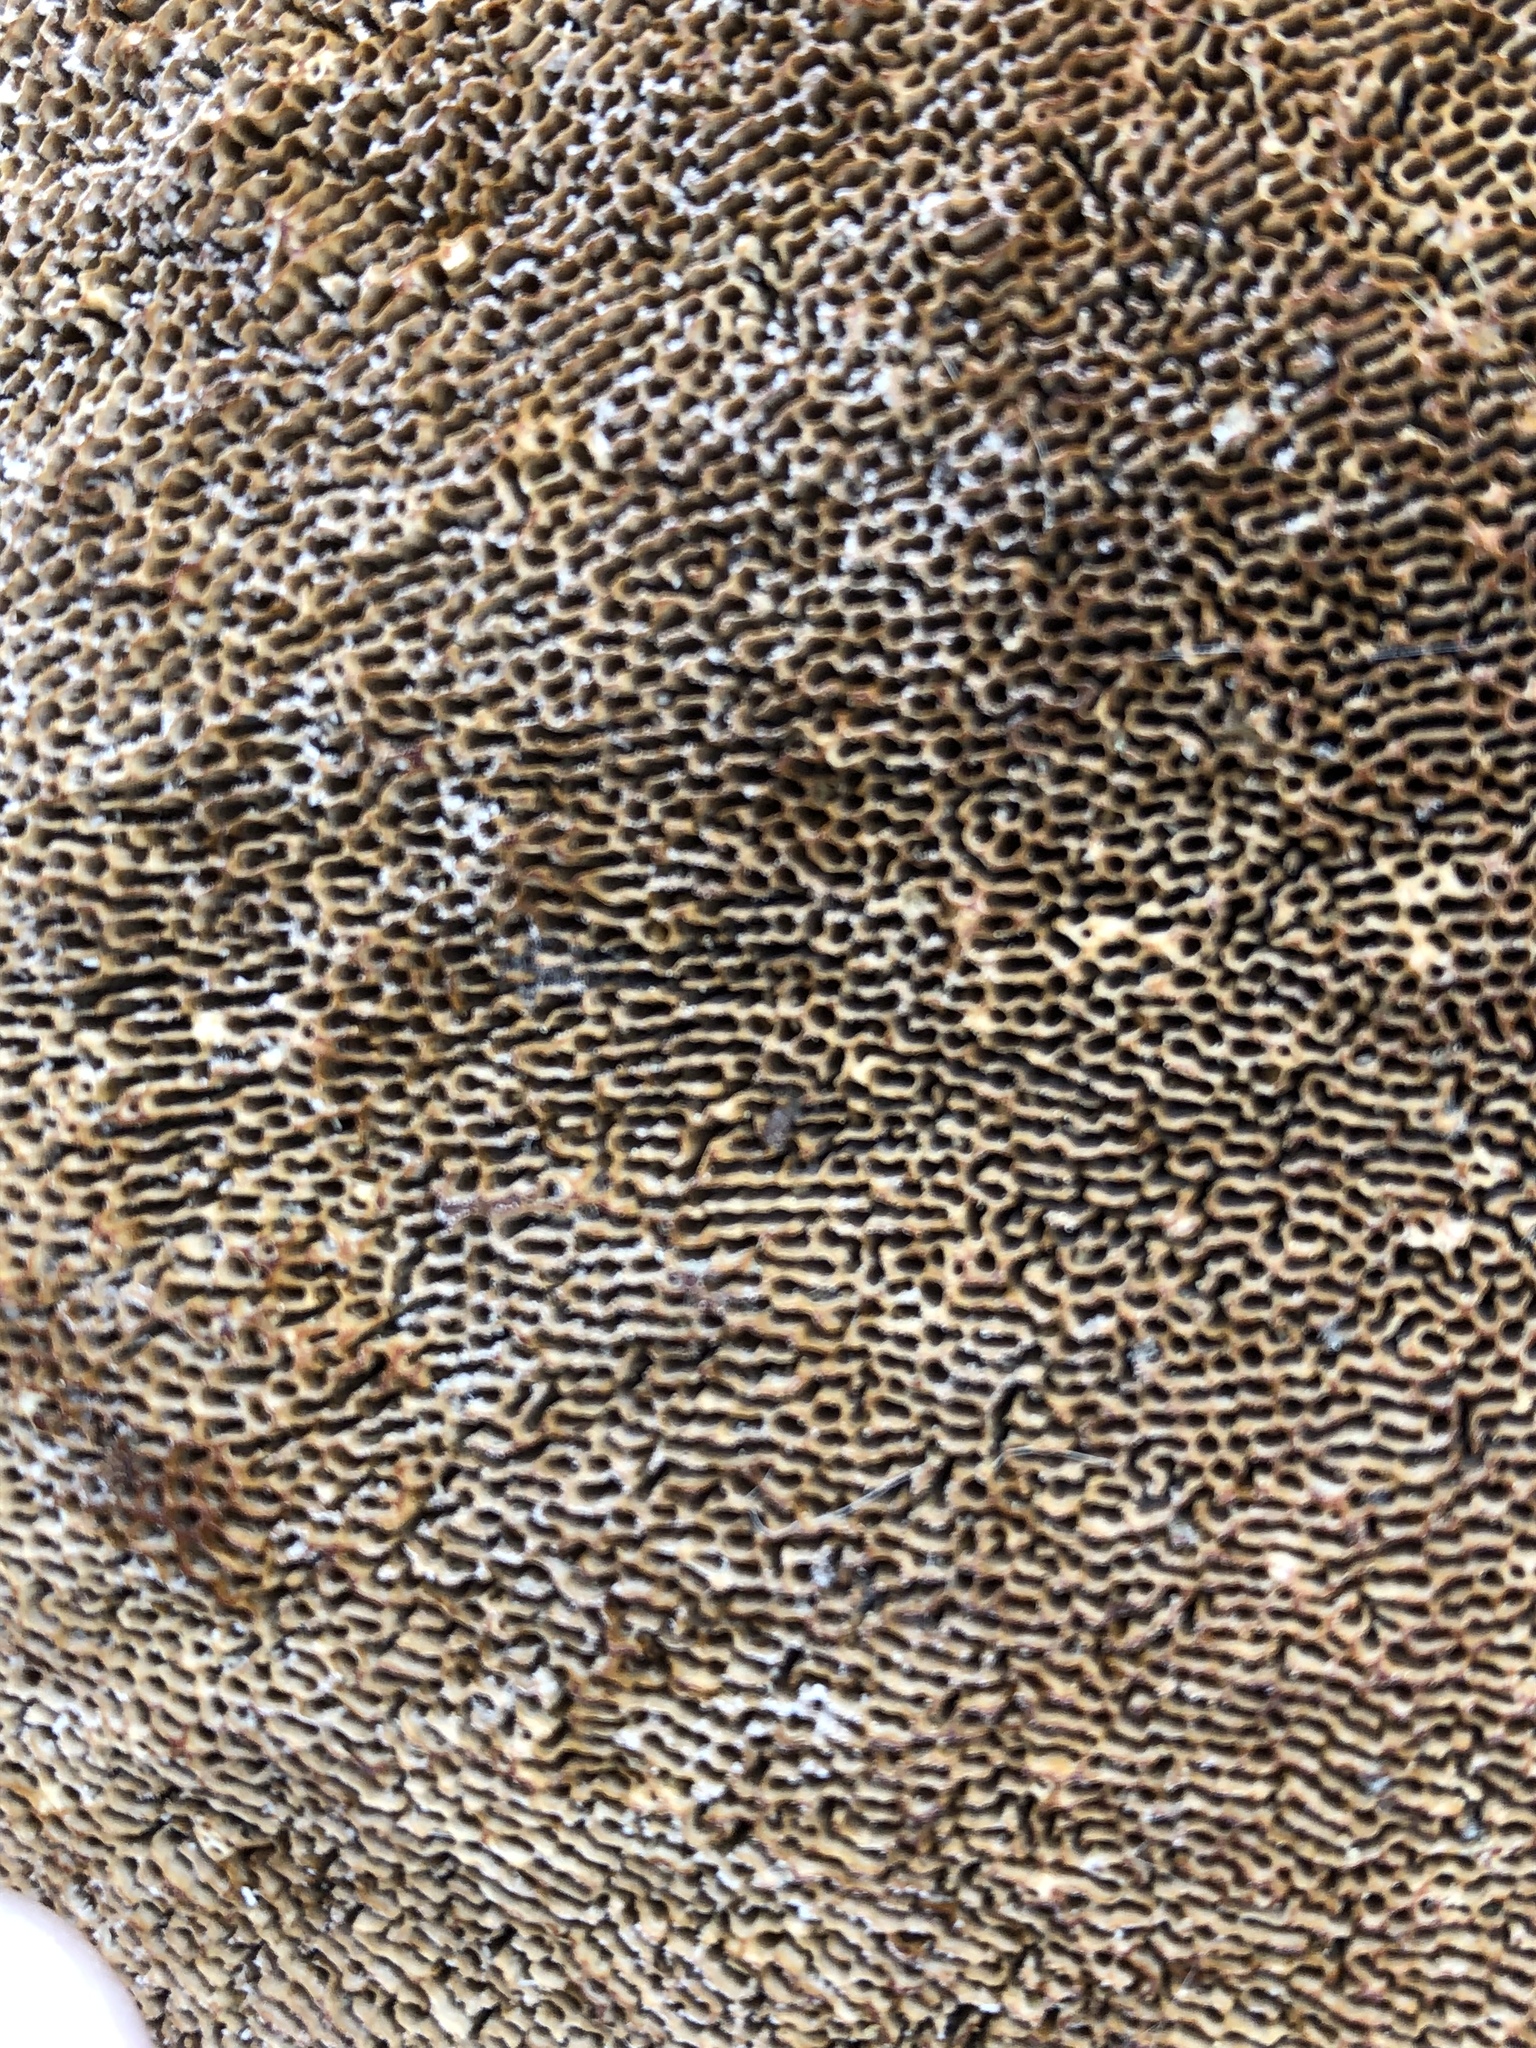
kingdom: Fungi
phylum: Basidiomycota
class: Agaricomycetes
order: Polyporales
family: Polyporaceae
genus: Daedaleopsis
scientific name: Daedaleopsis confragosa
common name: Blushing bracket
